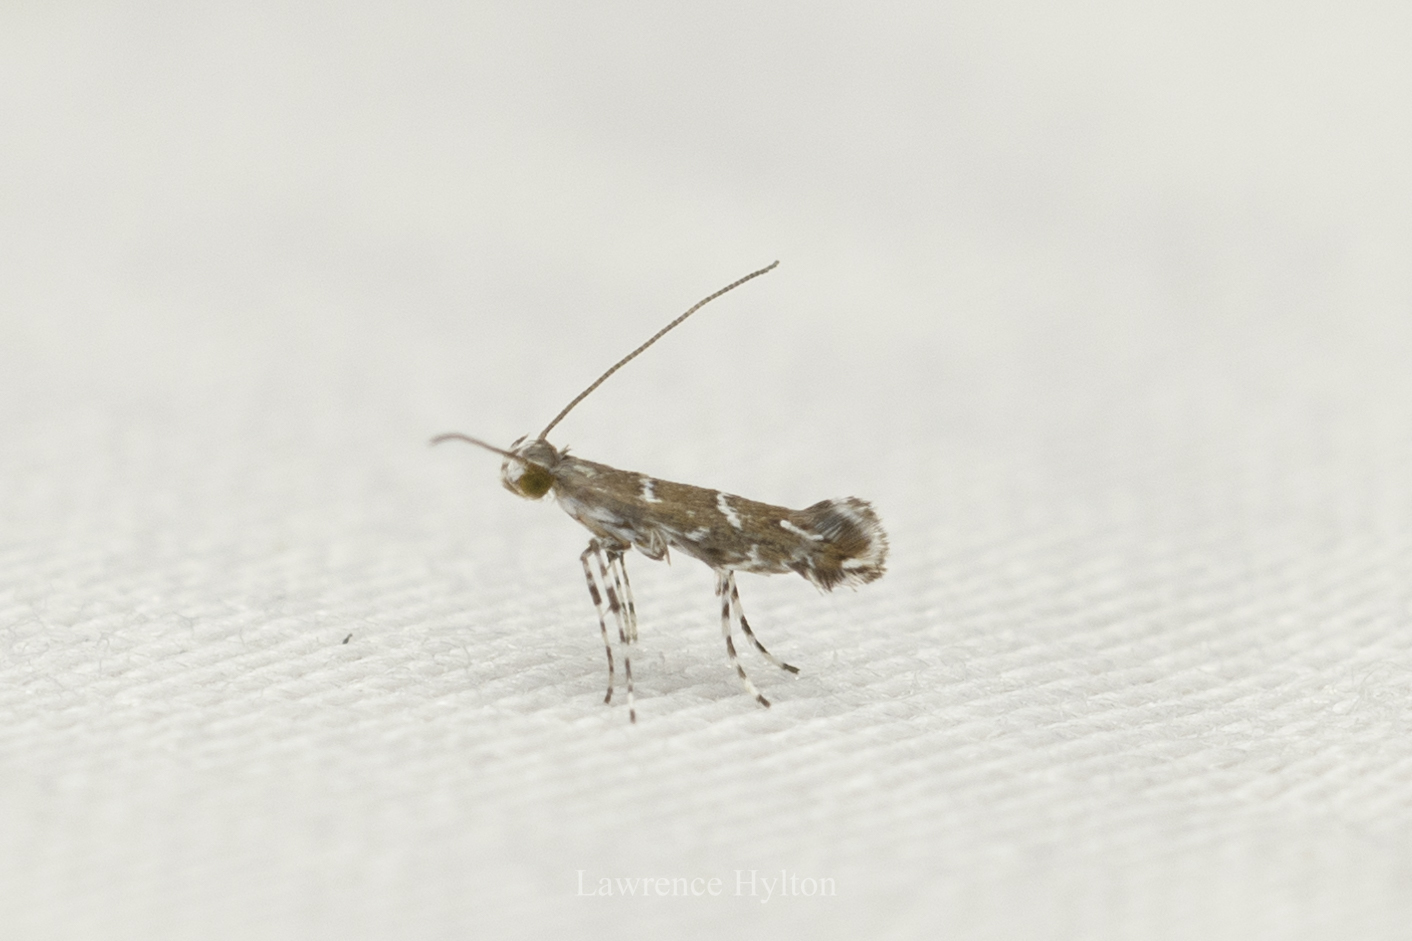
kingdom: Animalia
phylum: Arthropoda
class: Insecta
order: Lepidoptera
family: Gracillariidae
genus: Systoloneura
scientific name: Systoloneura geometropis
